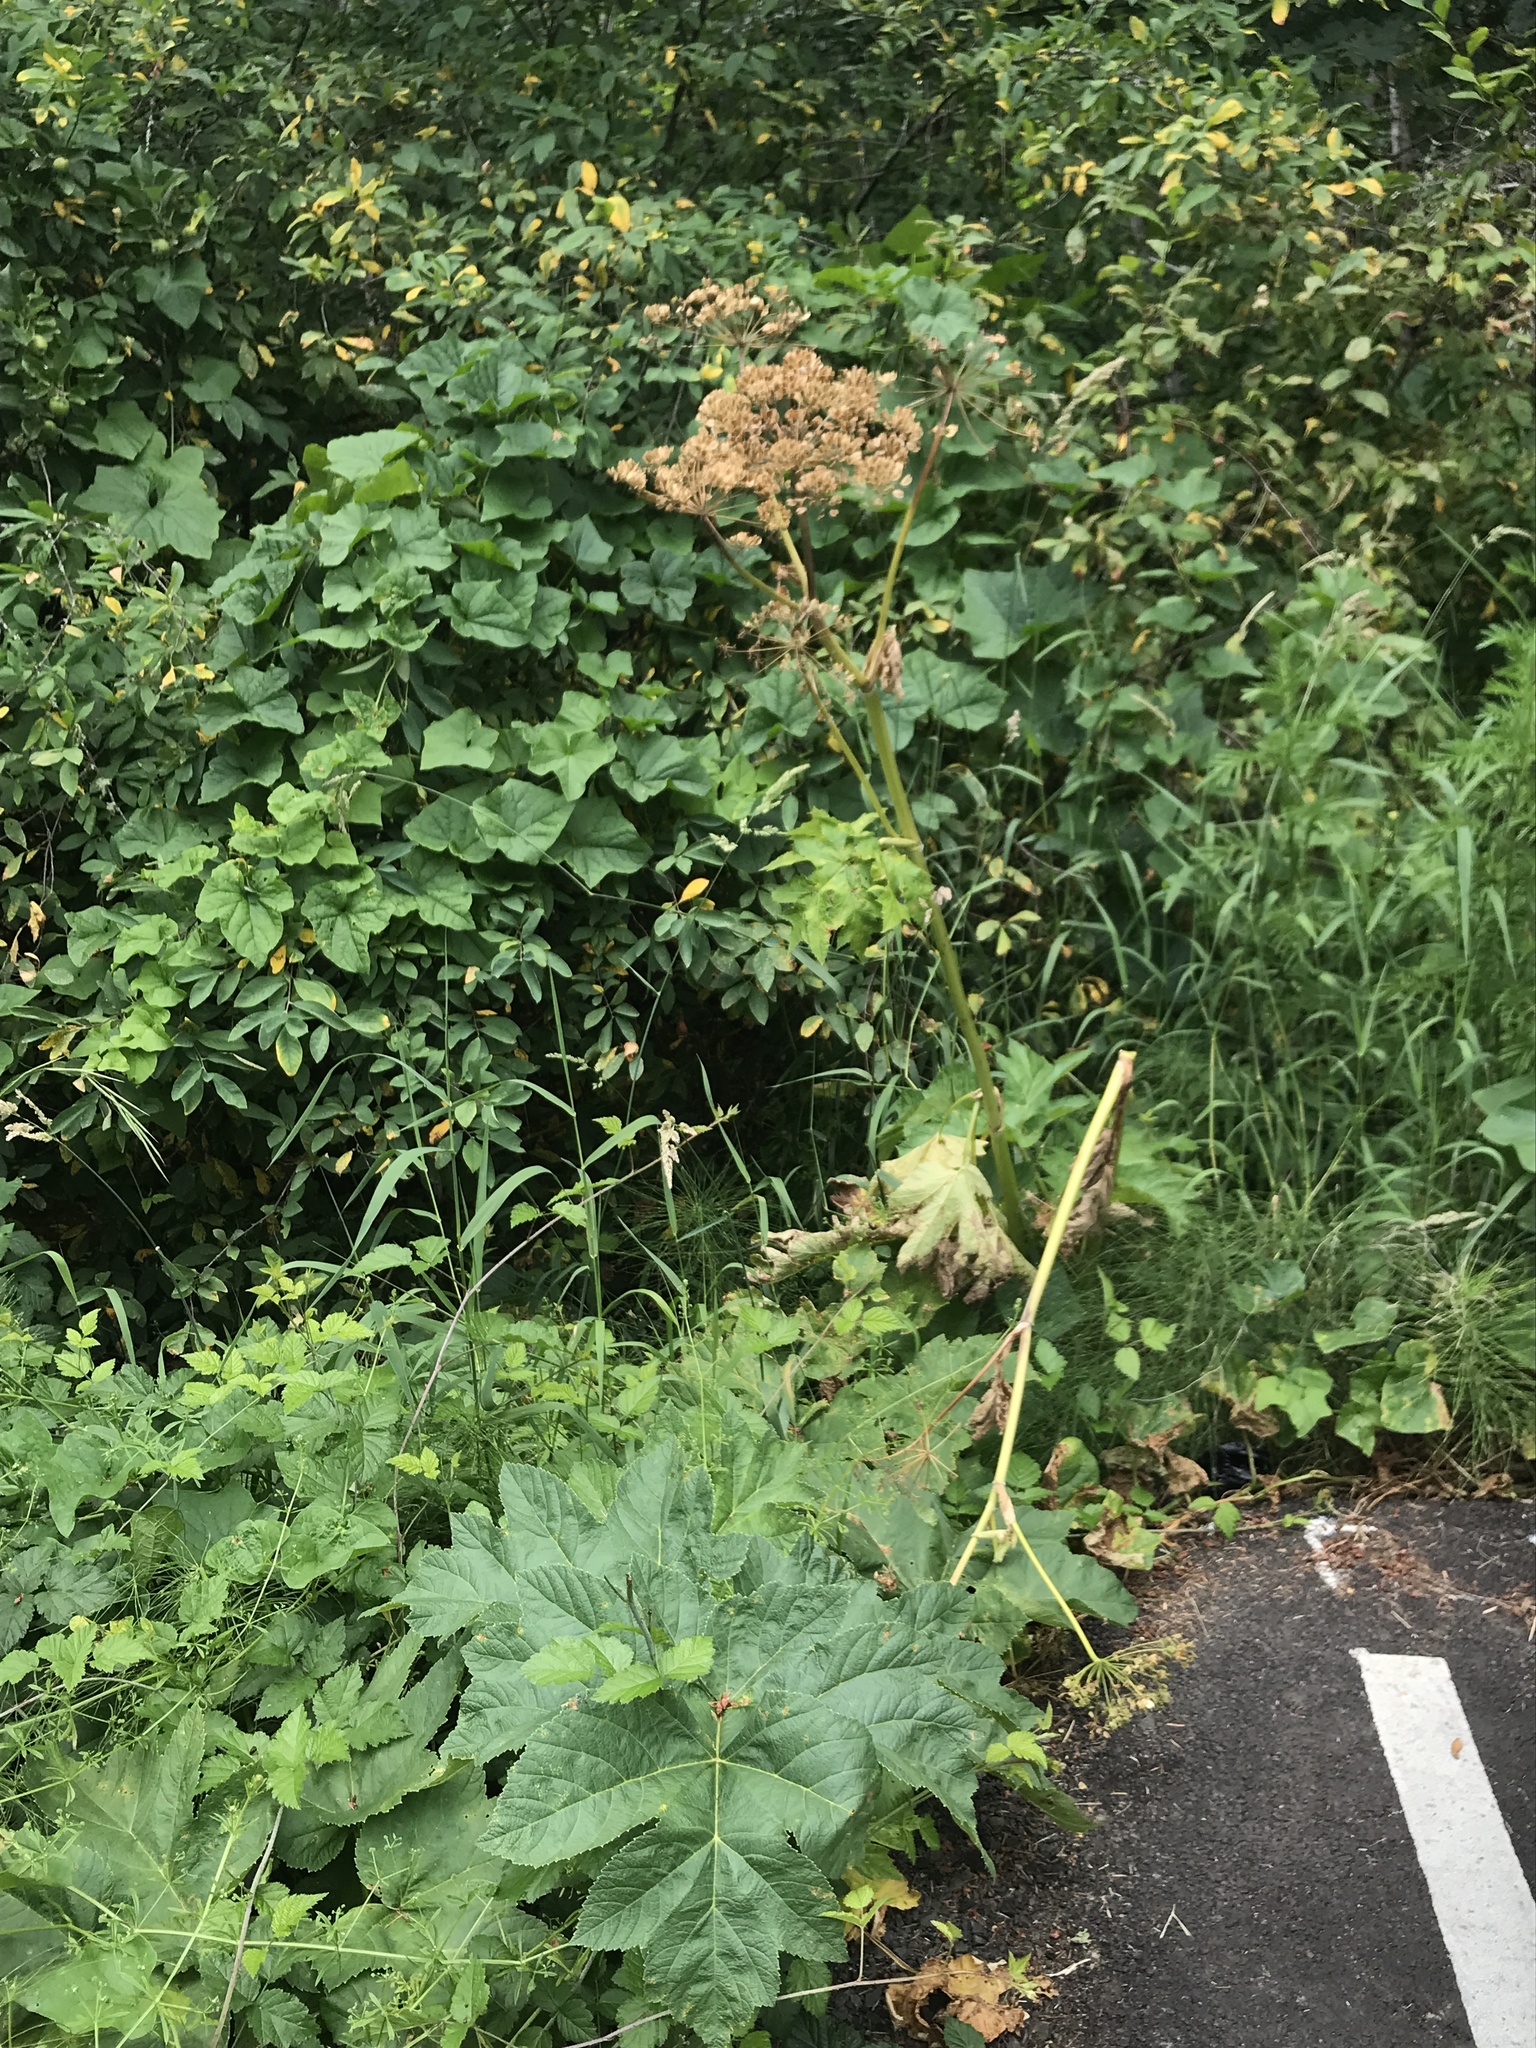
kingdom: Plantae
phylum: Tracheophyta
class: Magnoliopsida
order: Apiales
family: Apiaceae
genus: Heracleum
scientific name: Heracleum maximum
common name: American cow parsnip
